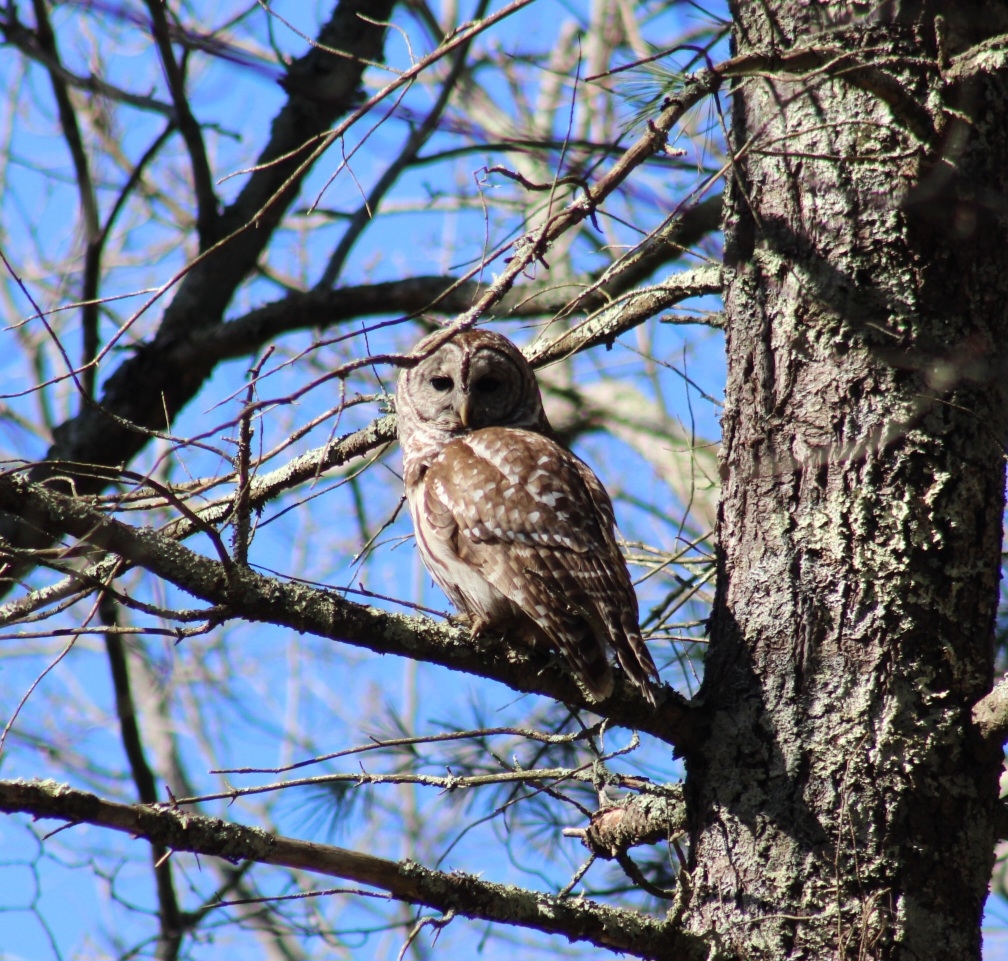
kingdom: Animalia
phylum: Chordata
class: Aves
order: Strigiformes
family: Strigidae
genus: Strix
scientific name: Strix varia
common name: Barred owl
